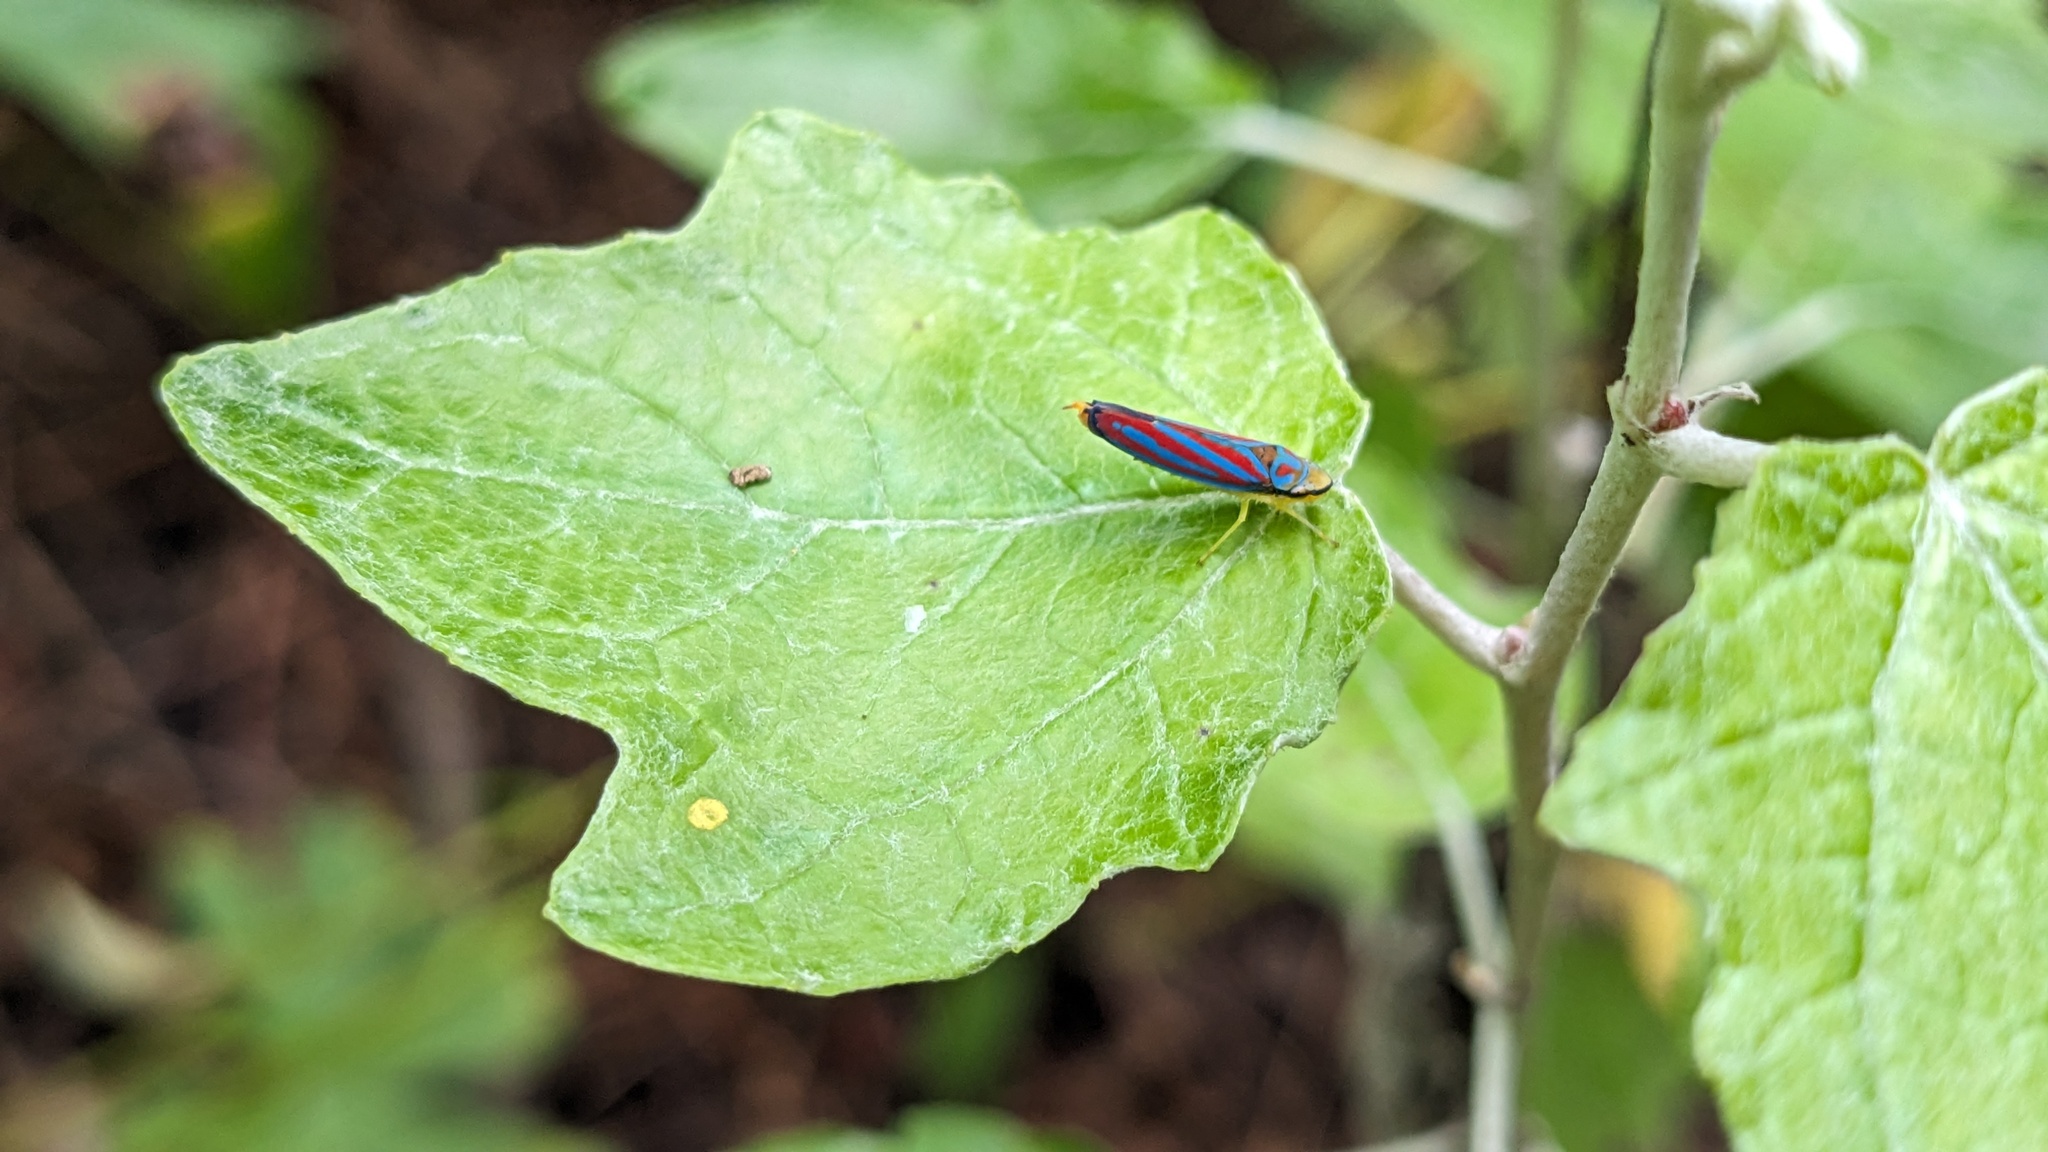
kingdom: Animalia
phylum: Arthropoda
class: Insecta
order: Hemiptera
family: Cicadellidae
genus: Graphocephala
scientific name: Graphocephala coccinea
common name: Candy-striped leafhopper
